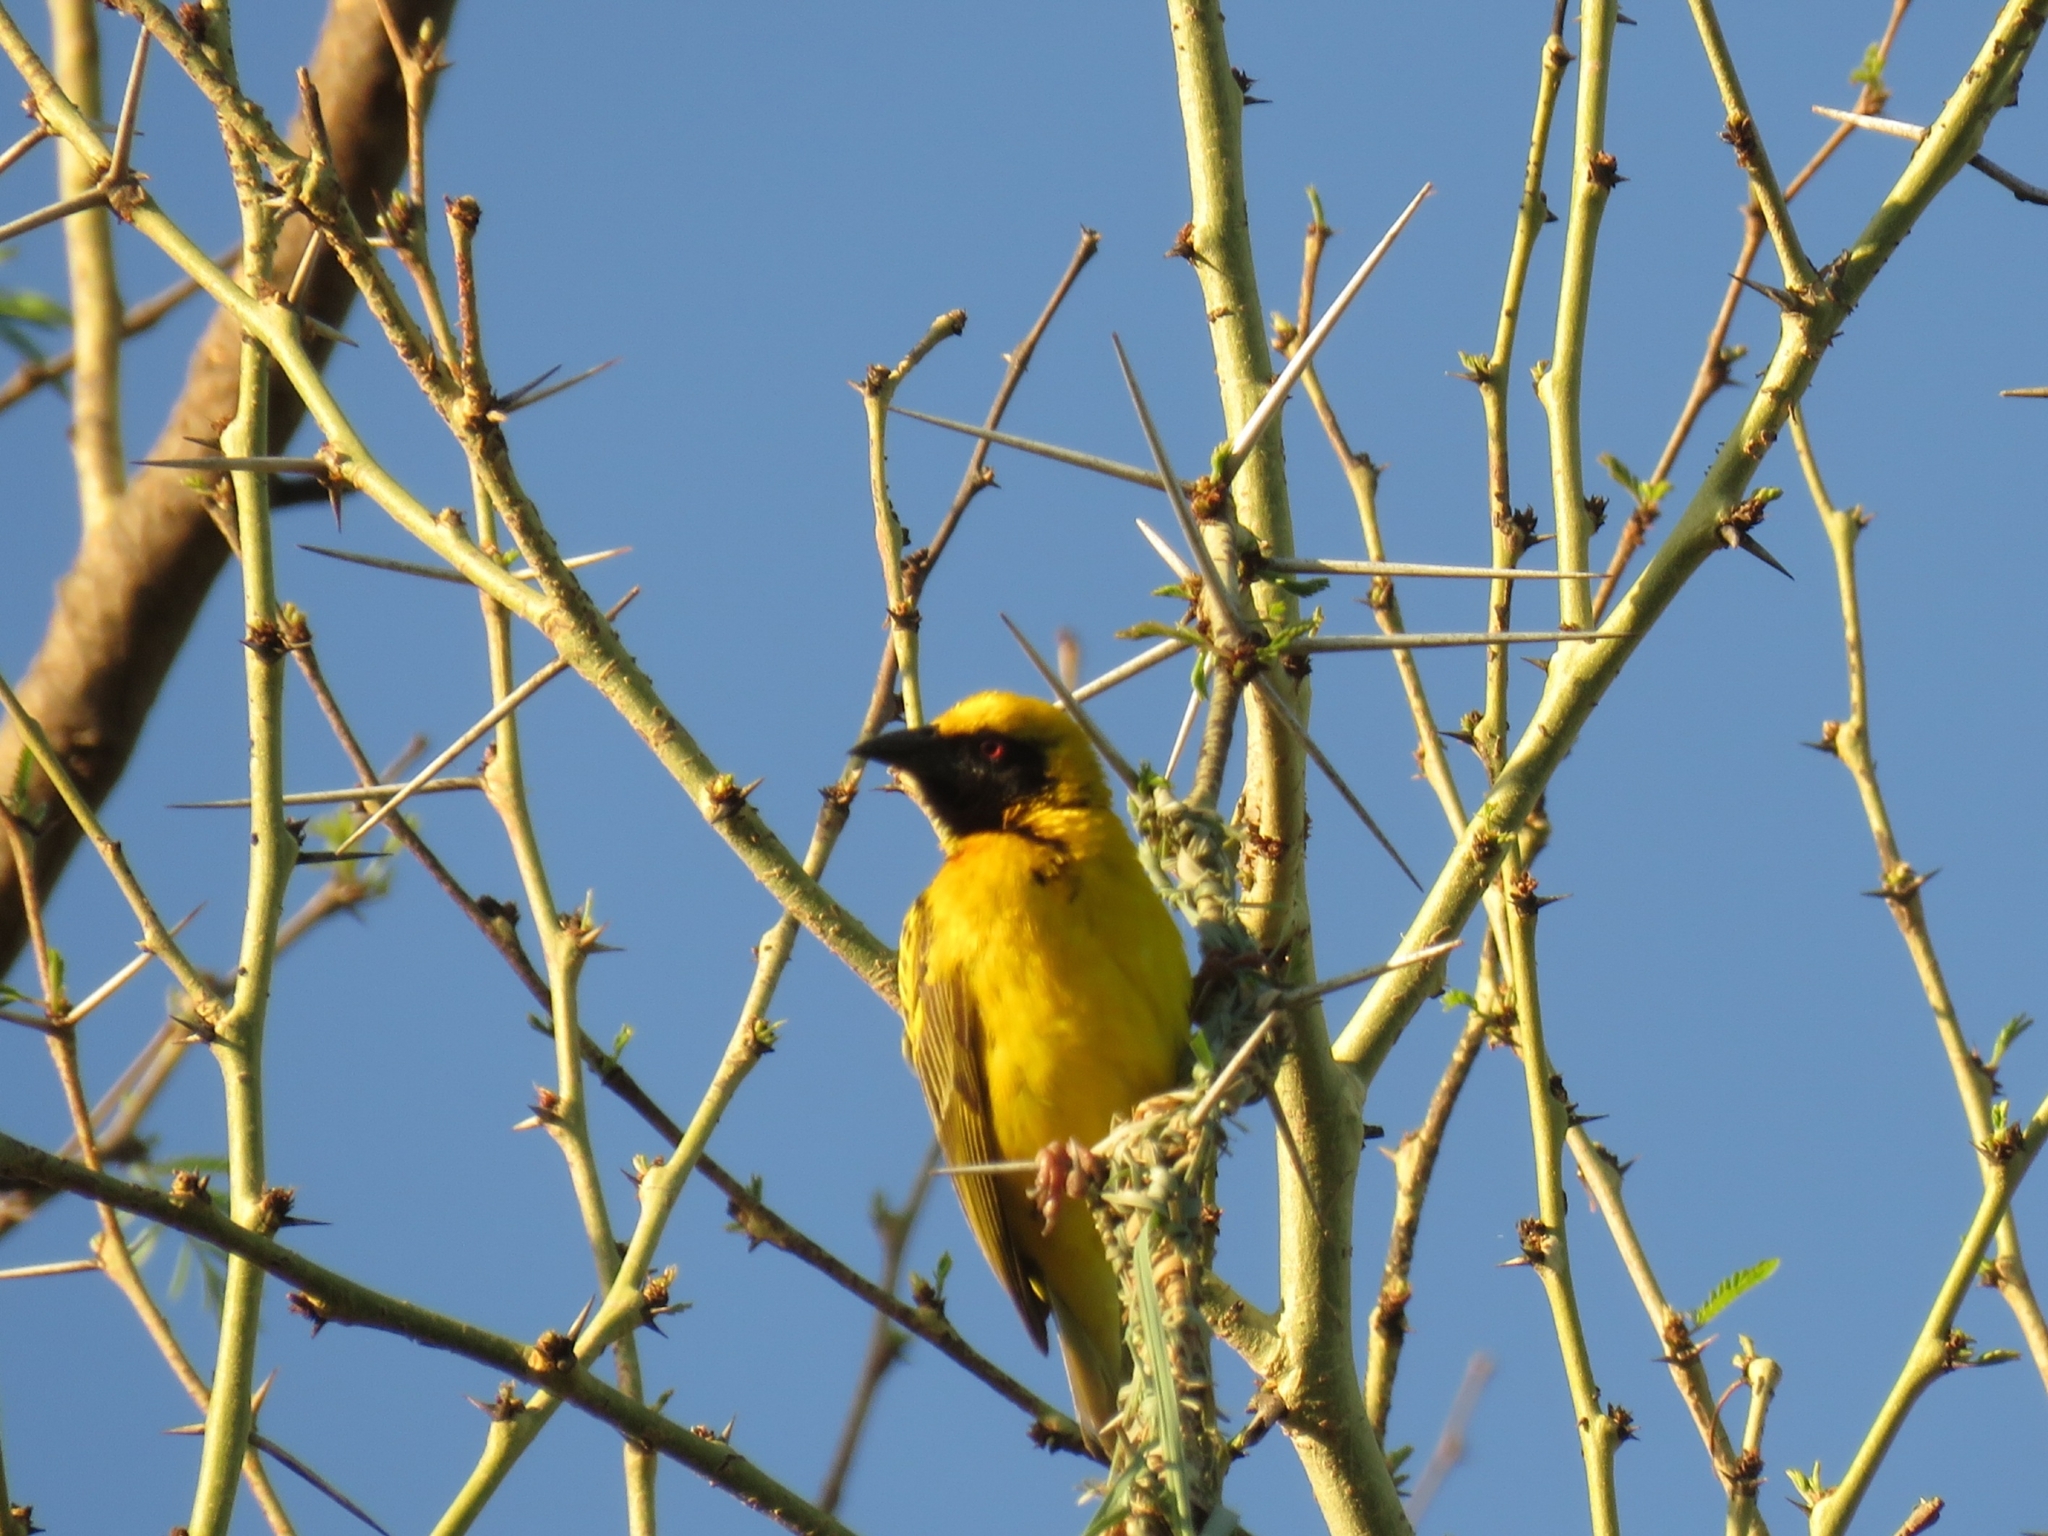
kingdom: Animalia
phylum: Chordata
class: Aves
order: Passeriformes
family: Ploceidae
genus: Ploceus
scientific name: Ploceus cucullatus
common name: Village weaver
